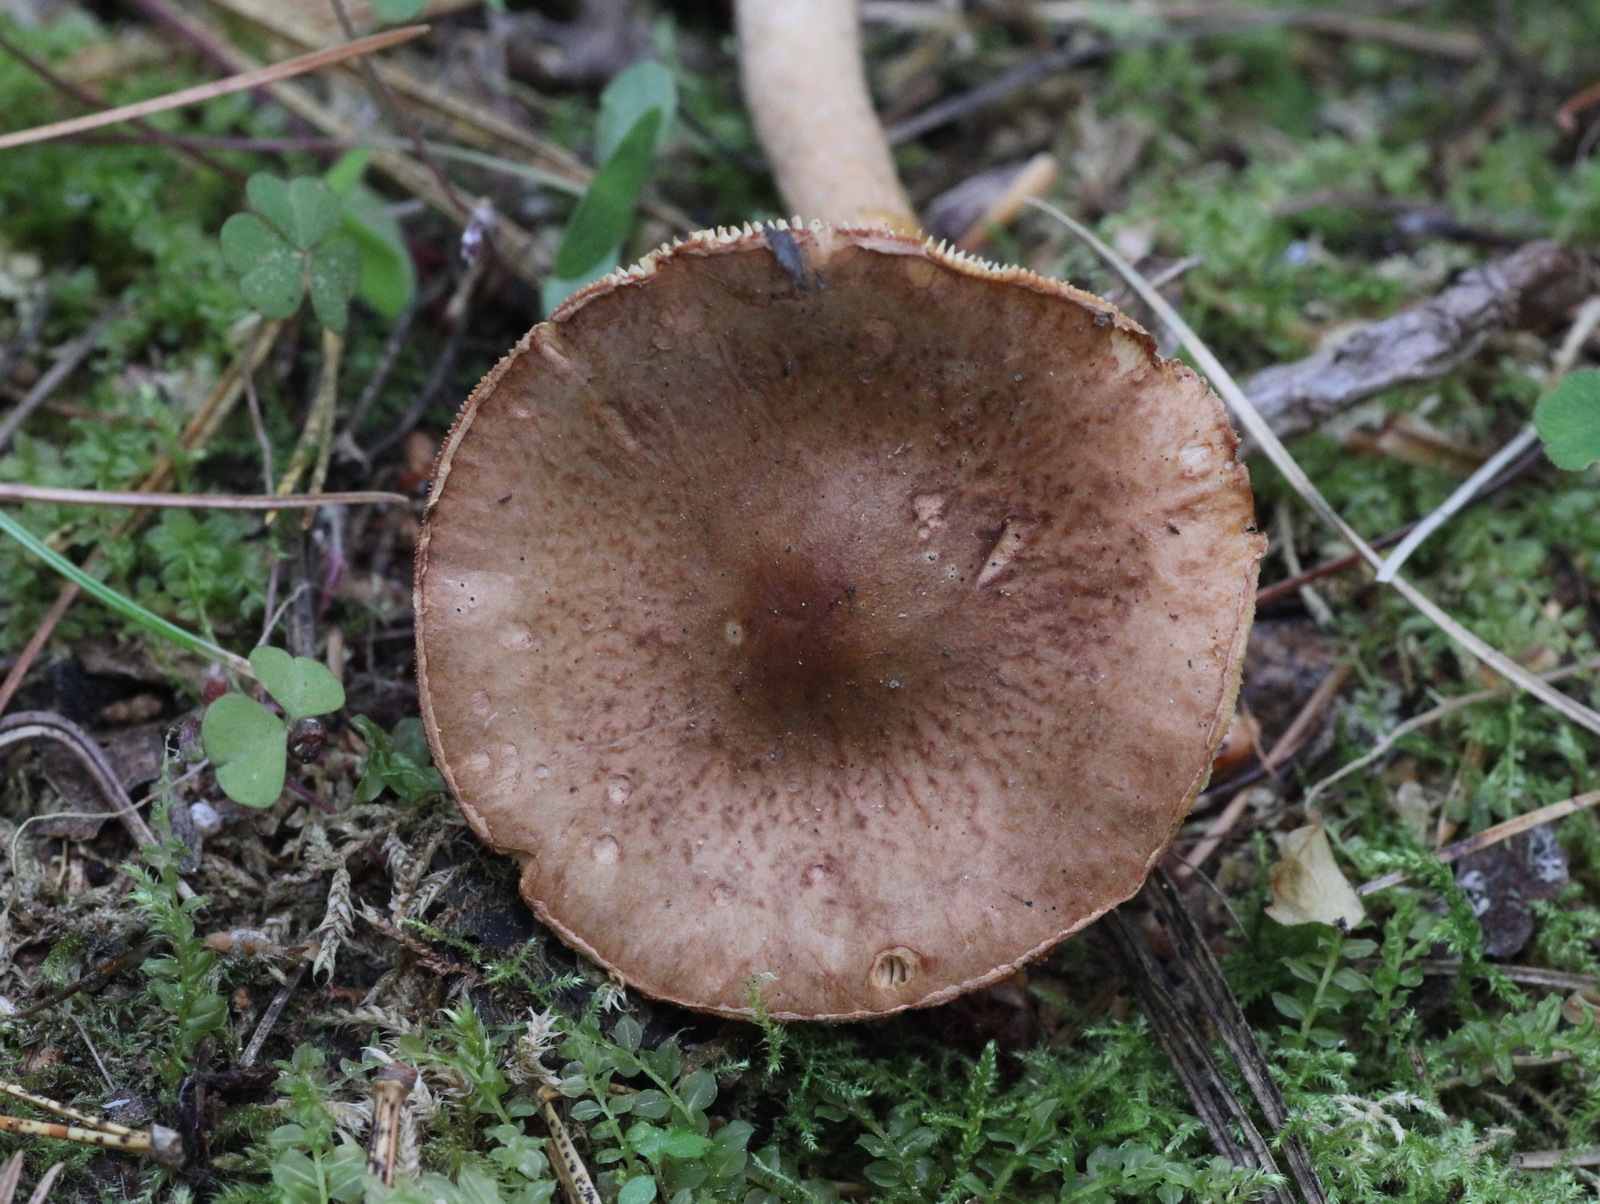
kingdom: Fungi
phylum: Basidiomycota
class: Agaricomycetes
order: Agaricales
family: Amanitaceae
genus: Limacella
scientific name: Limacella delicata
